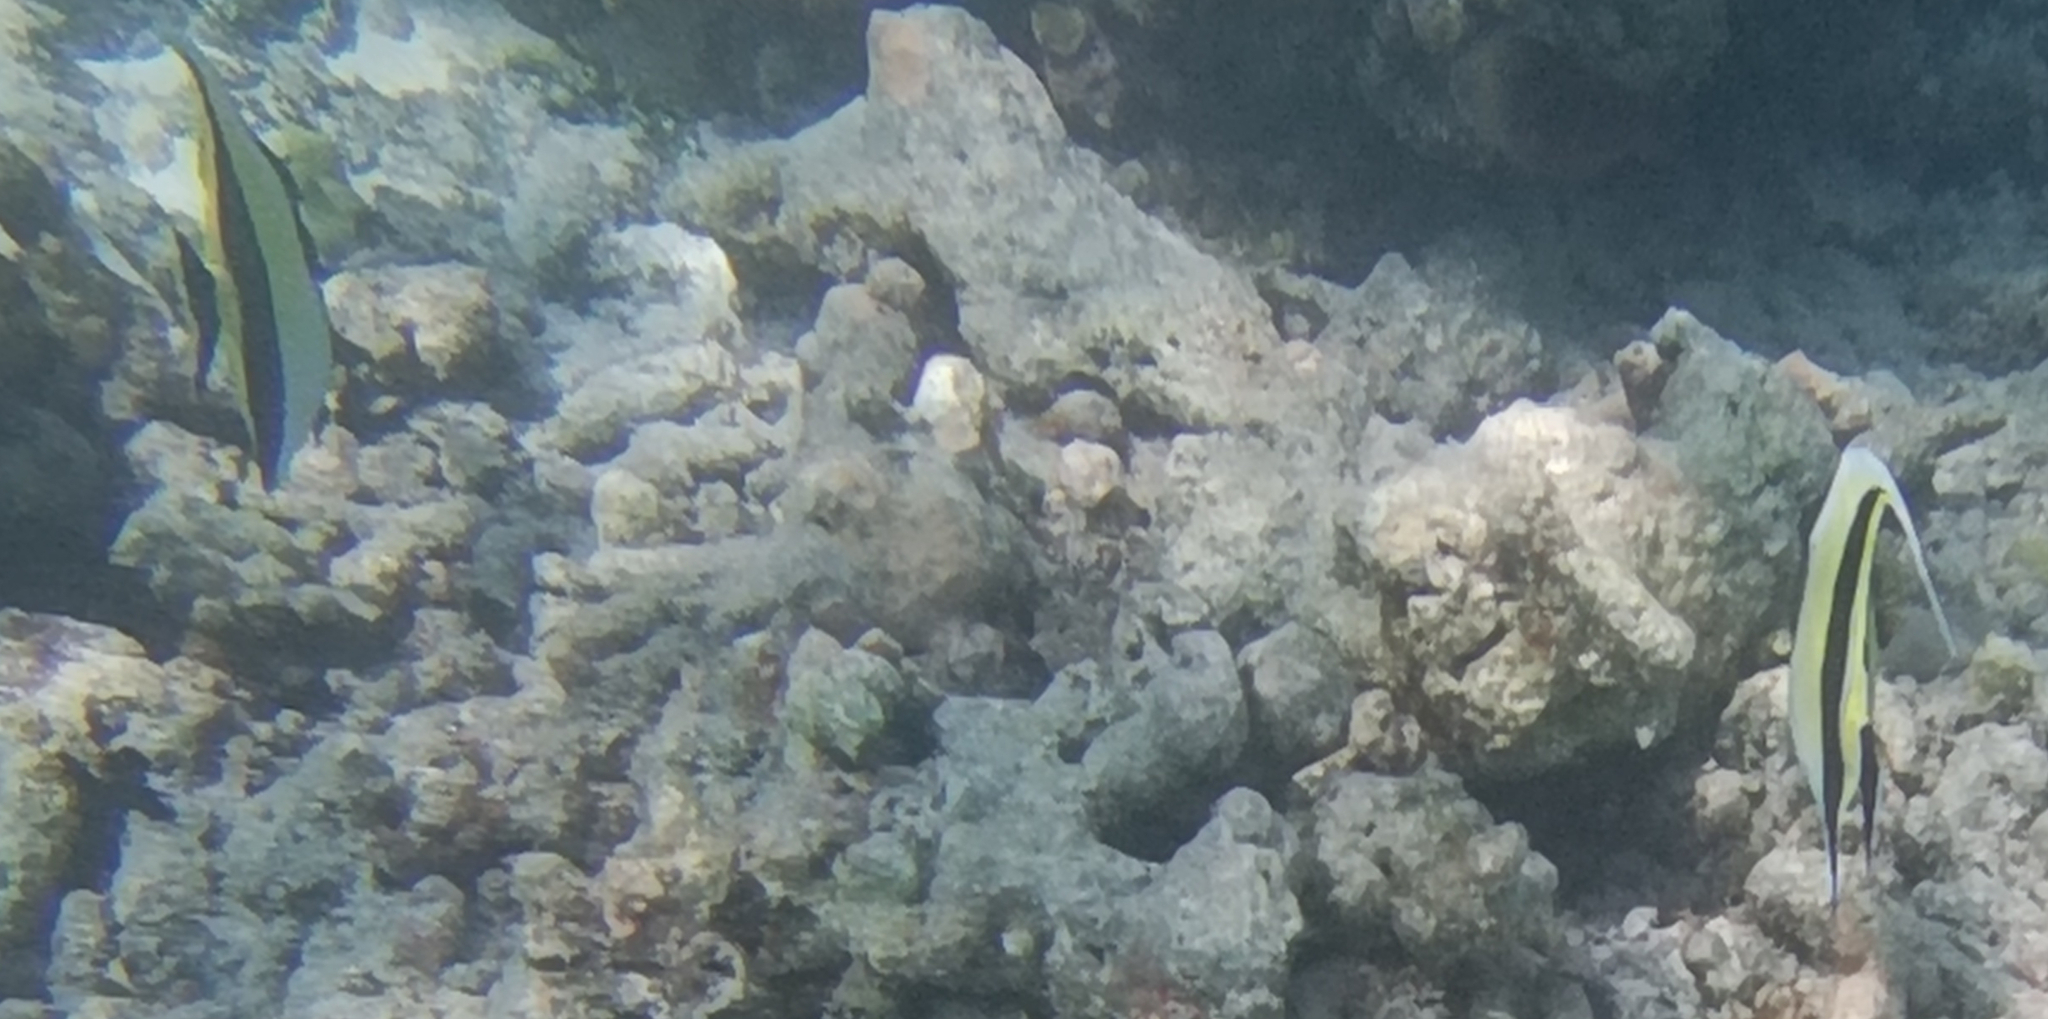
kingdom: Animalia
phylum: Chordata
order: Perciformes
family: Zanclidae
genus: Zanclus
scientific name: Zanclus cornutus
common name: Moorish idol
